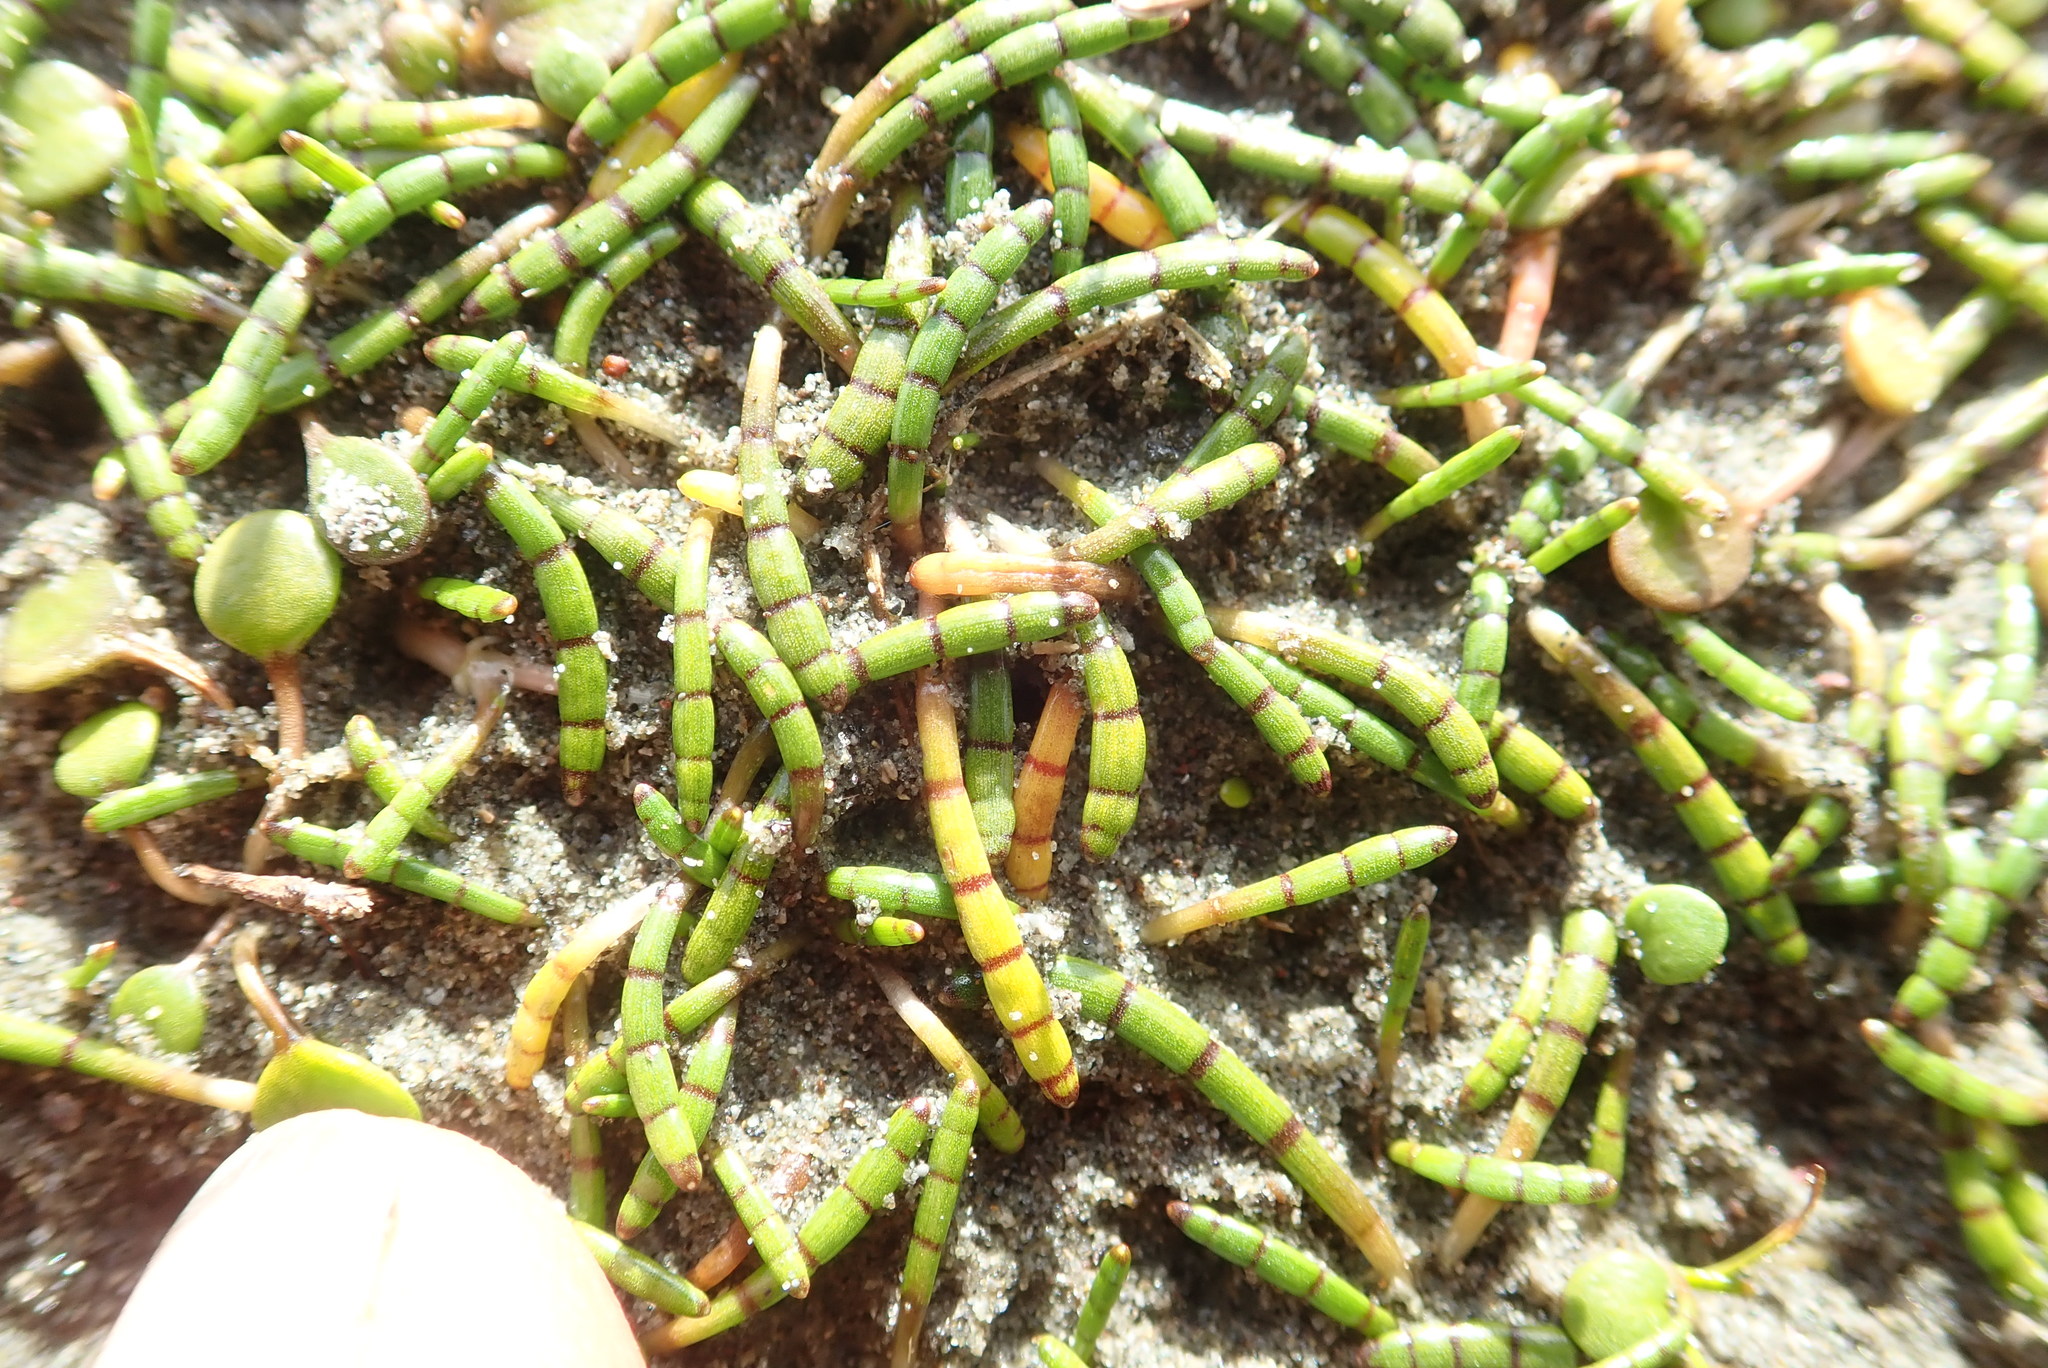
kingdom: Plantae
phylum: Tracheophyta
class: Magnoliopsida
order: Apiales
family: Apiaceae
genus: Lilaeopsis
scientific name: Lilaeopsis novae-zelandiae
